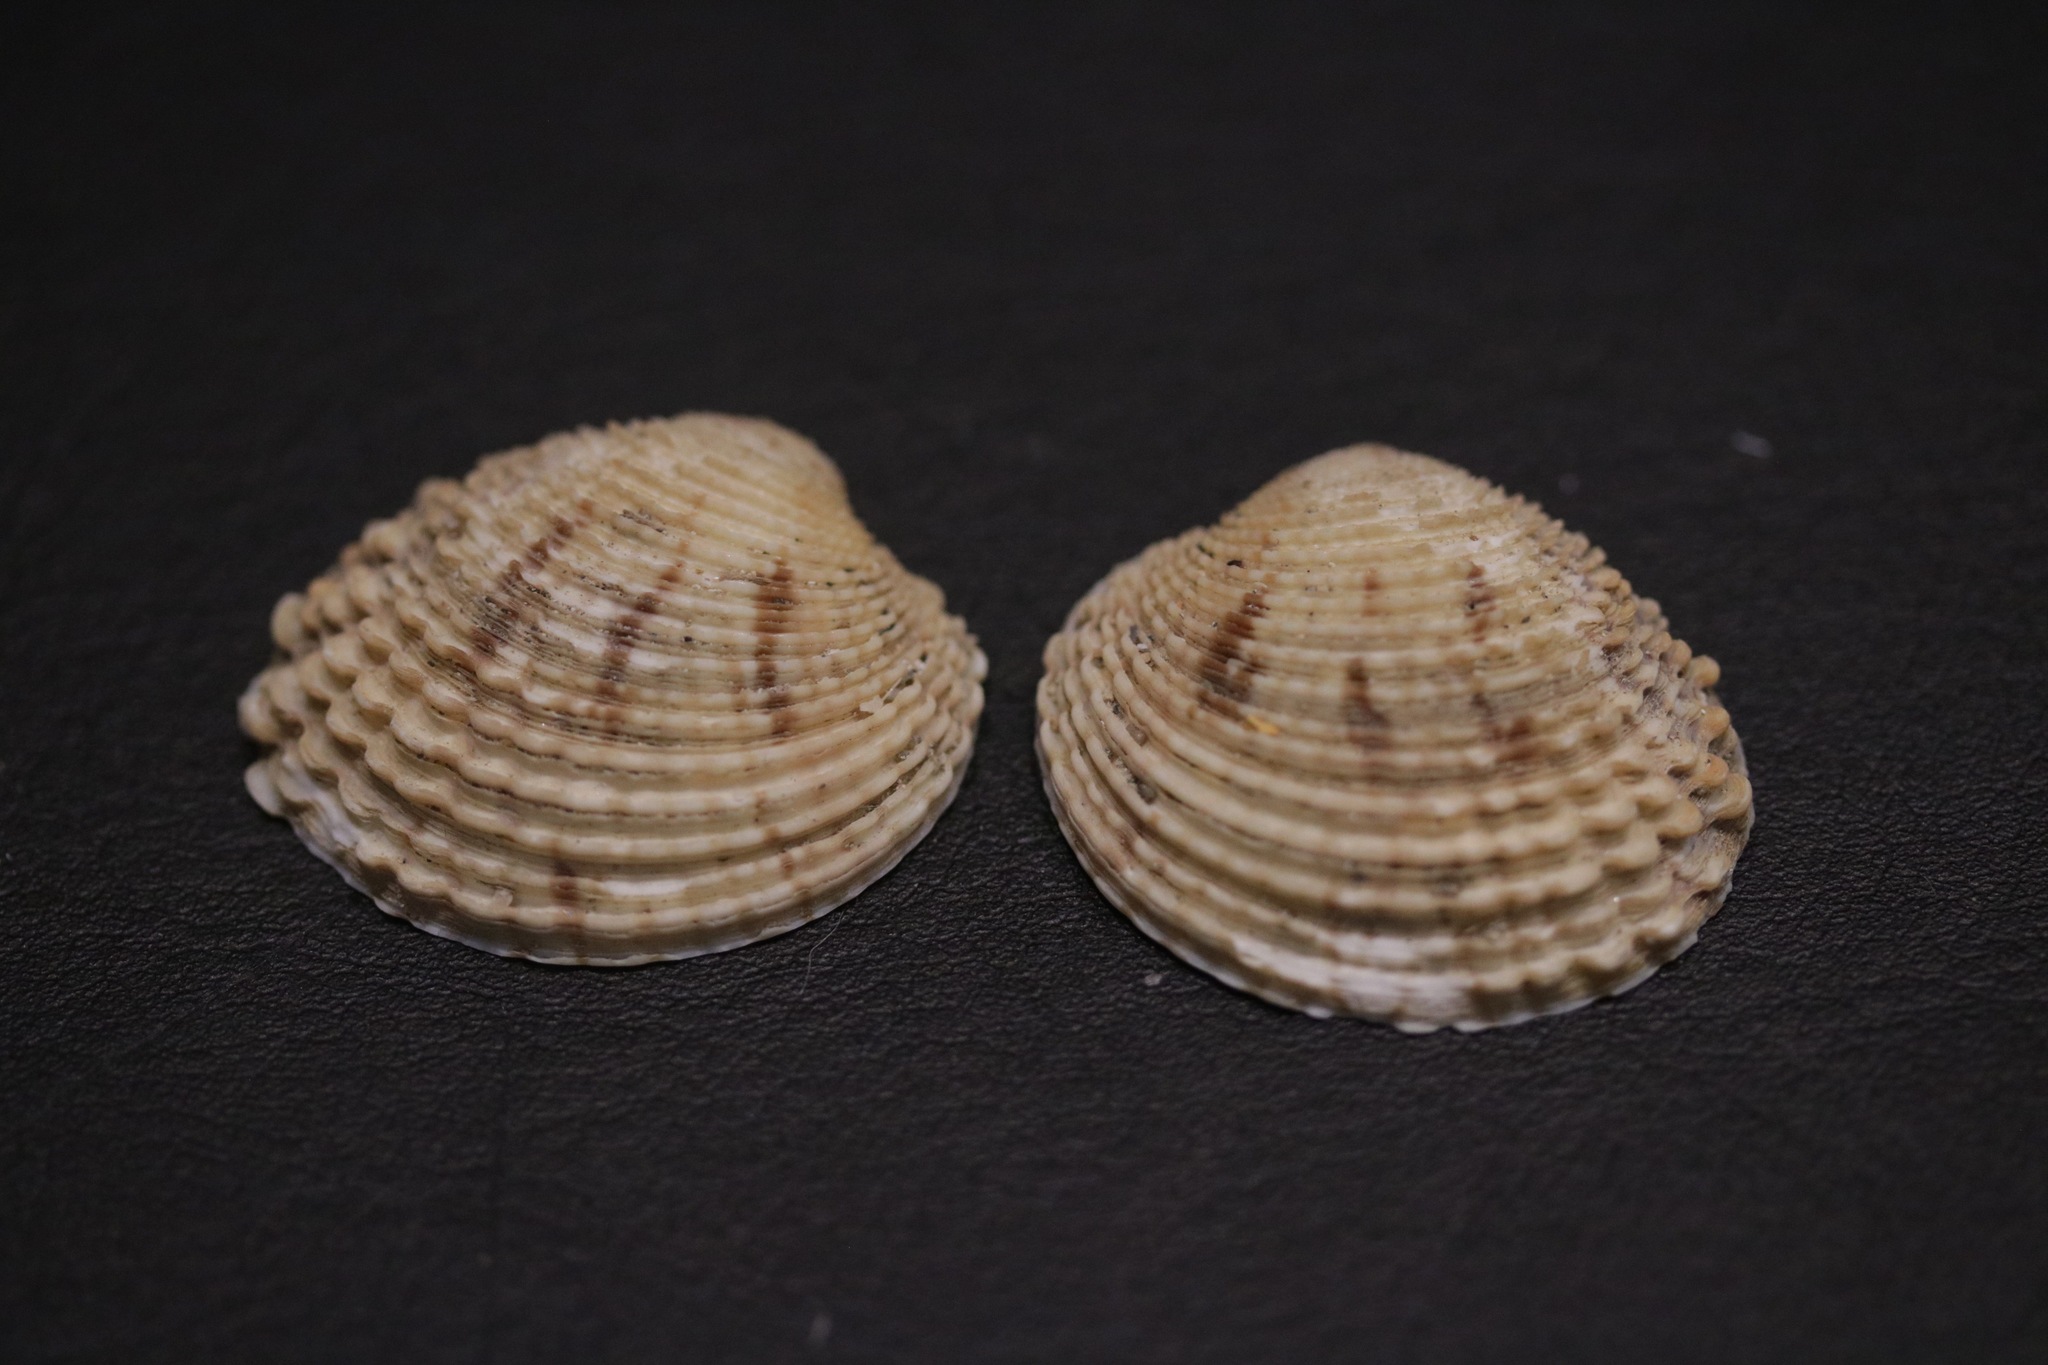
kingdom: Animalia
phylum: Mollusca
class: Bivalvia
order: Venerida
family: Veneridae
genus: Venus
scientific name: Venus verrucosa
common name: Warty venus
